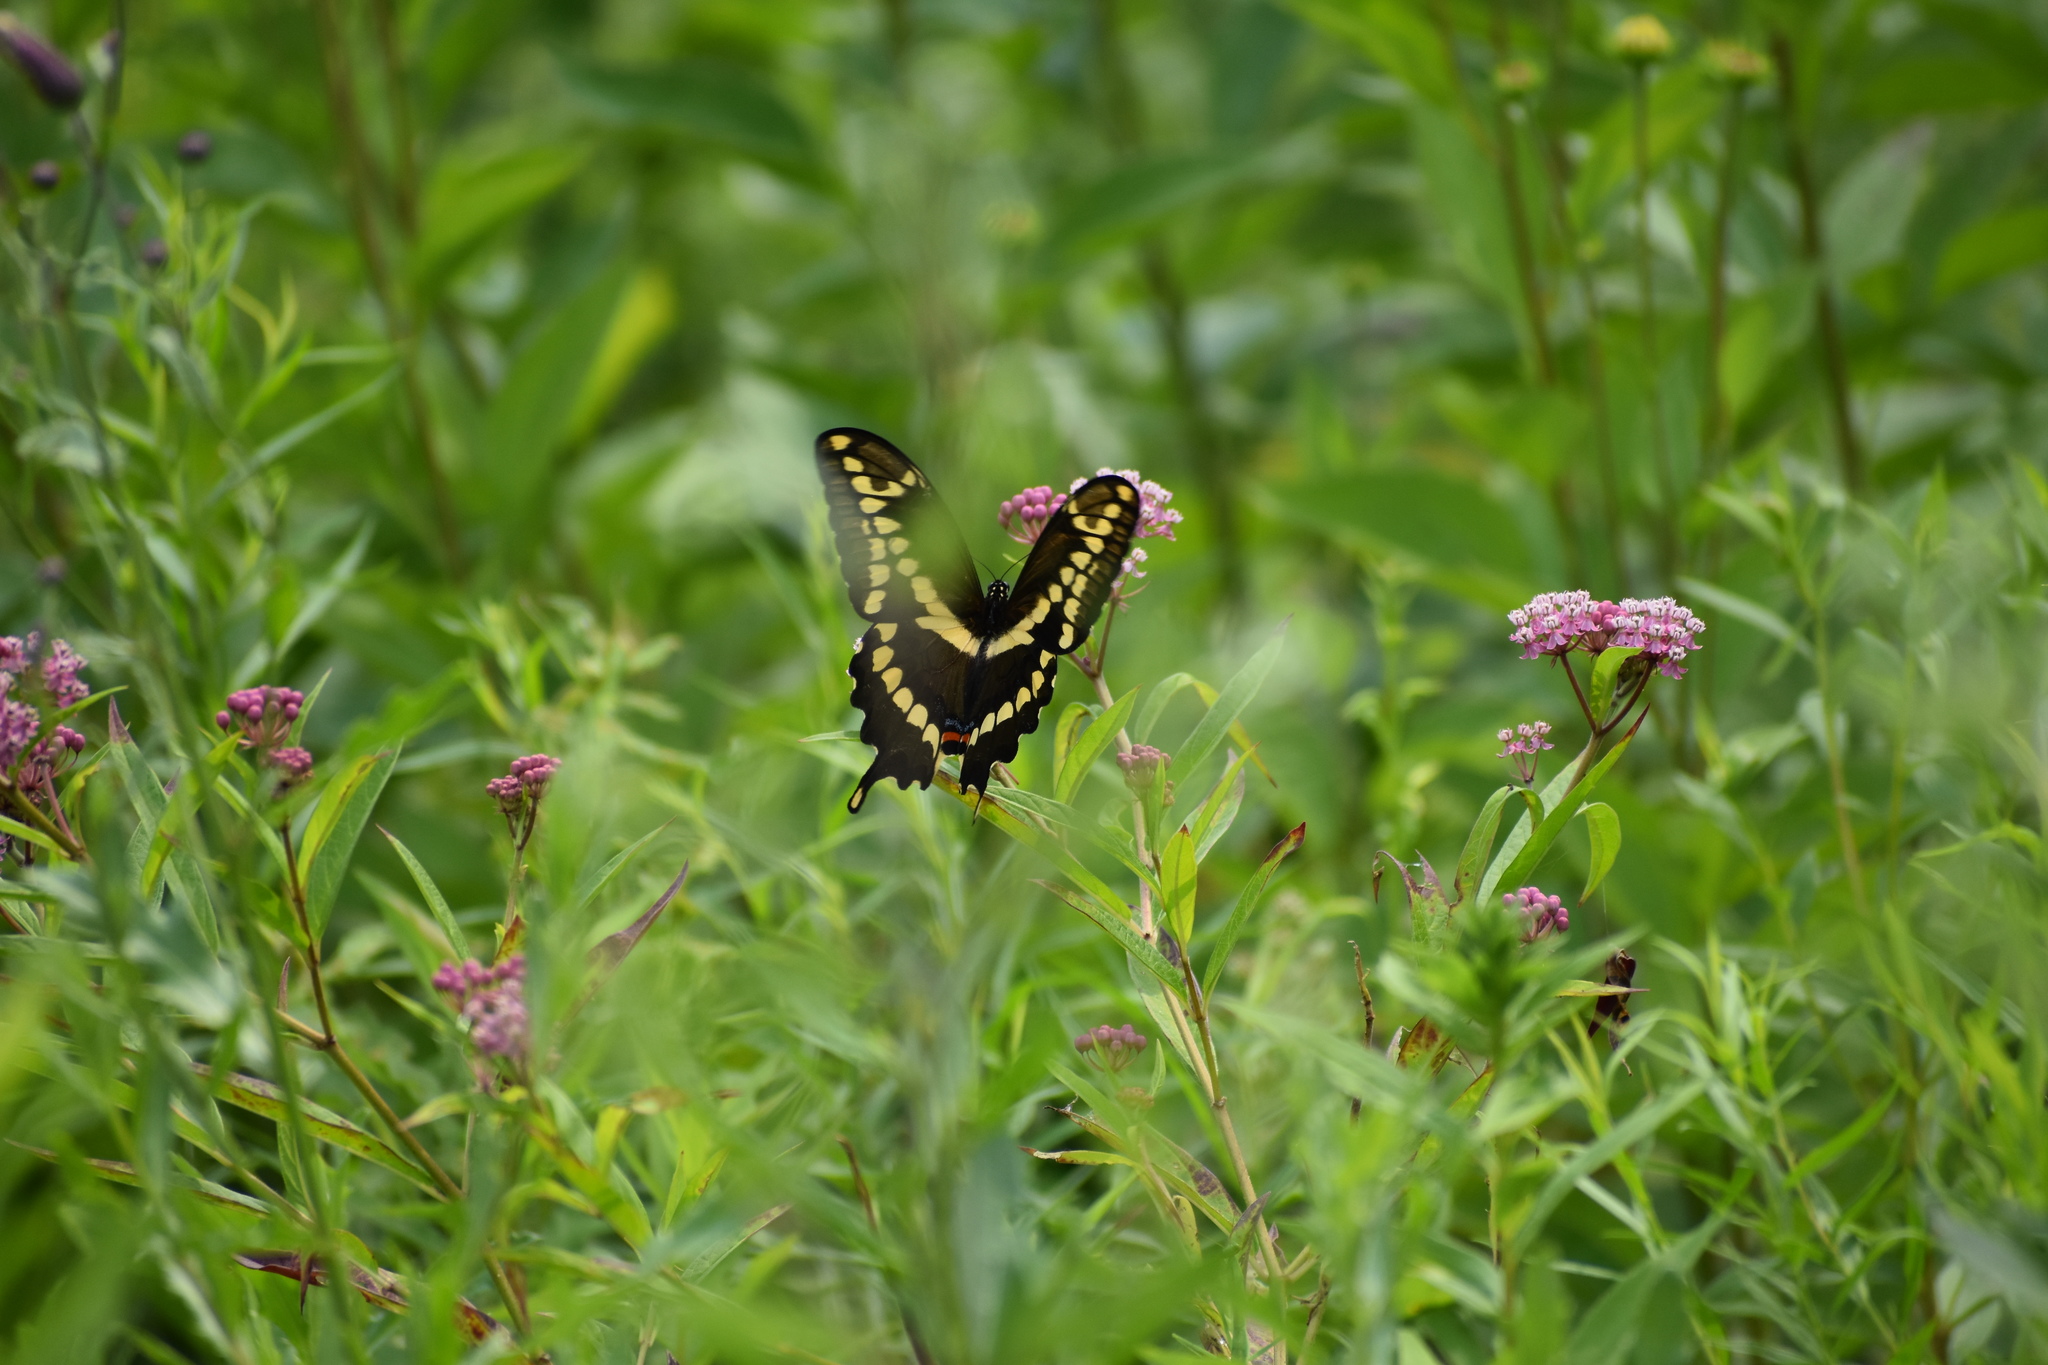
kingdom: Animalia
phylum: Arthropoda
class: Insecta
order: Lepidoptera
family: Papilionidae
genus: Papilio
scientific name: Papilio cresphontes
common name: Giant swallowtail
